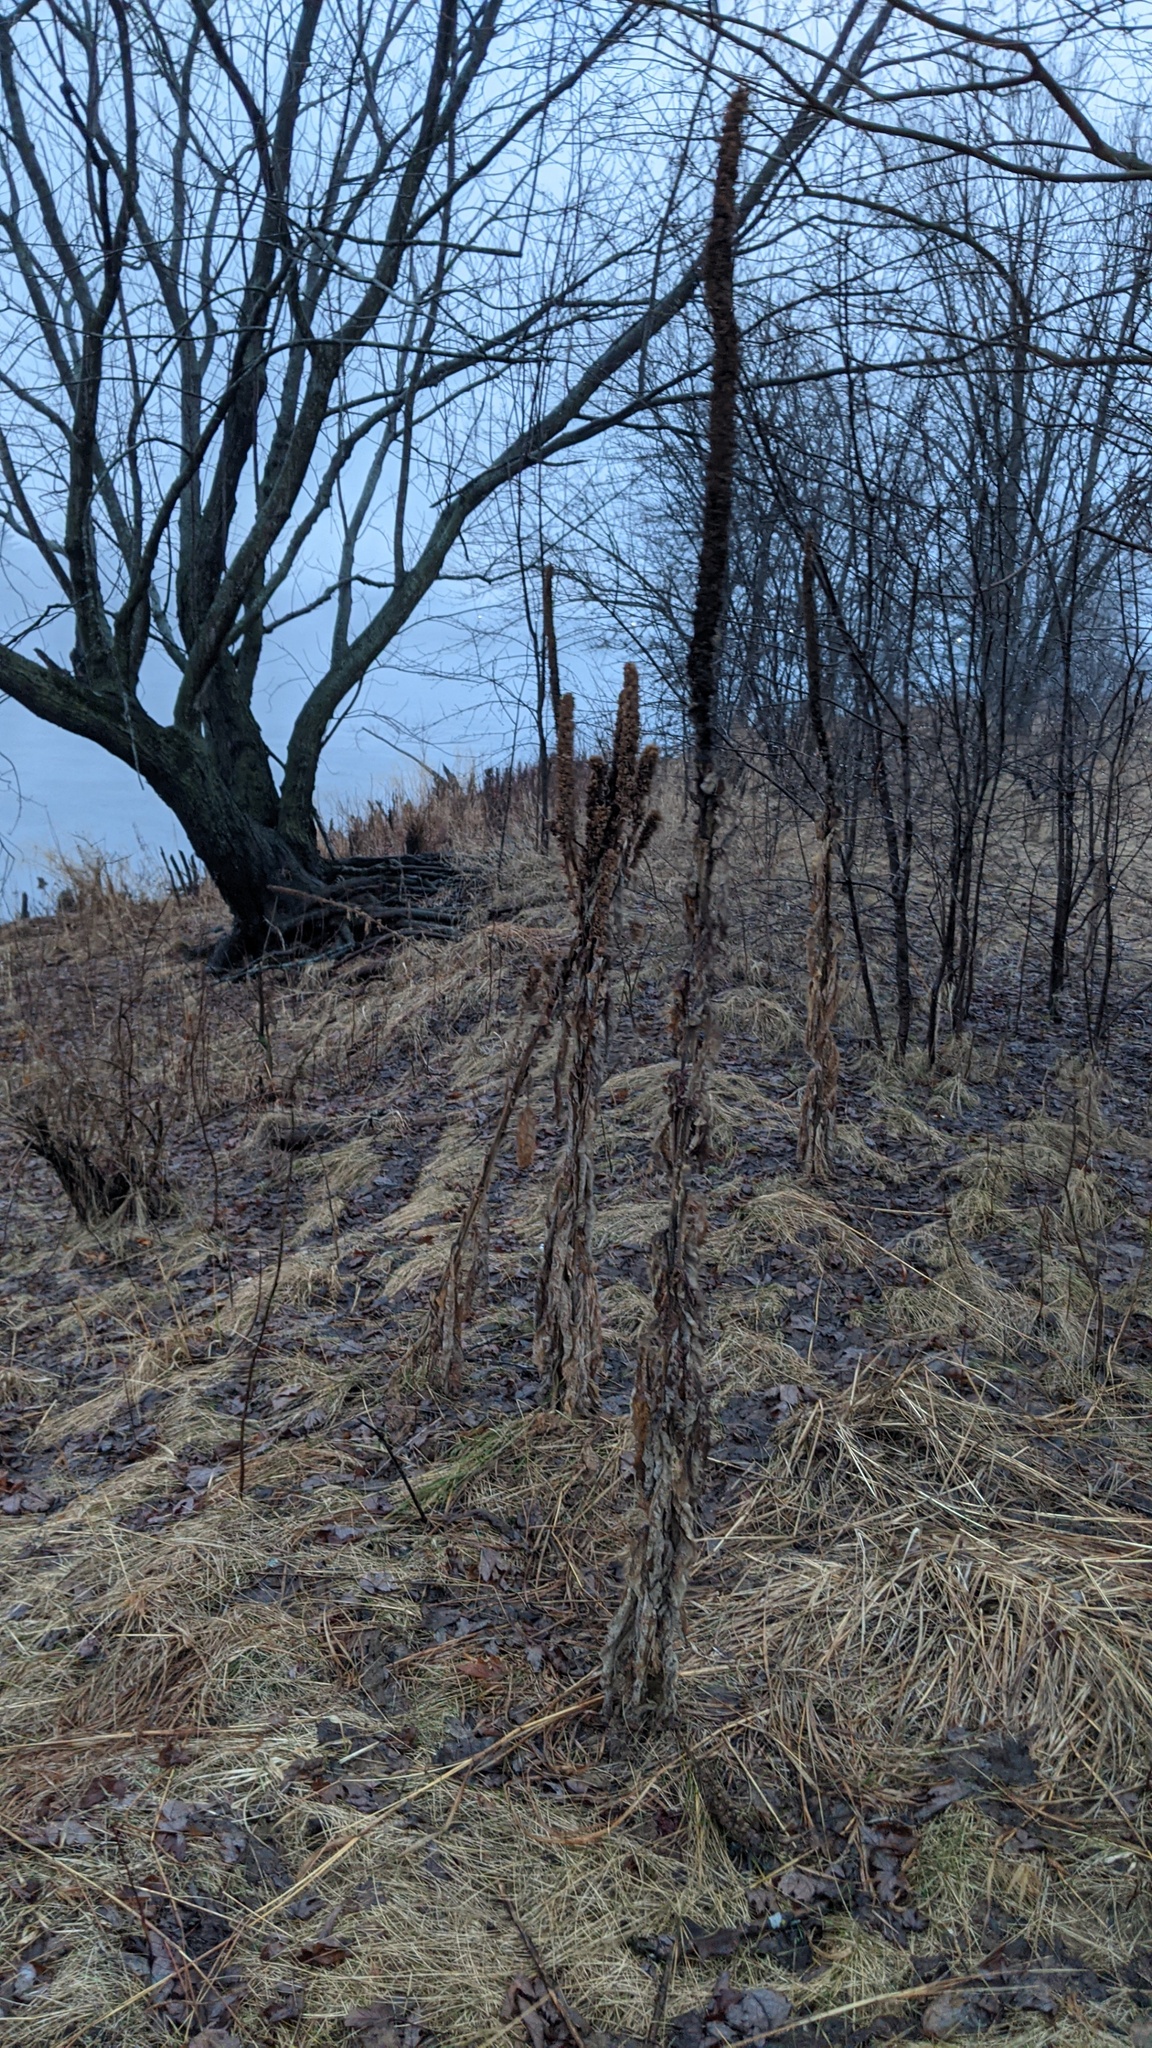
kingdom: Plantae
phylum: Tracheophyta
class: Magnoliopsida
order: Lamiales
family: Scrophulariaceae
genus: Verbascum
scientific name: Verbascum thapsus
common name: Common mullein
